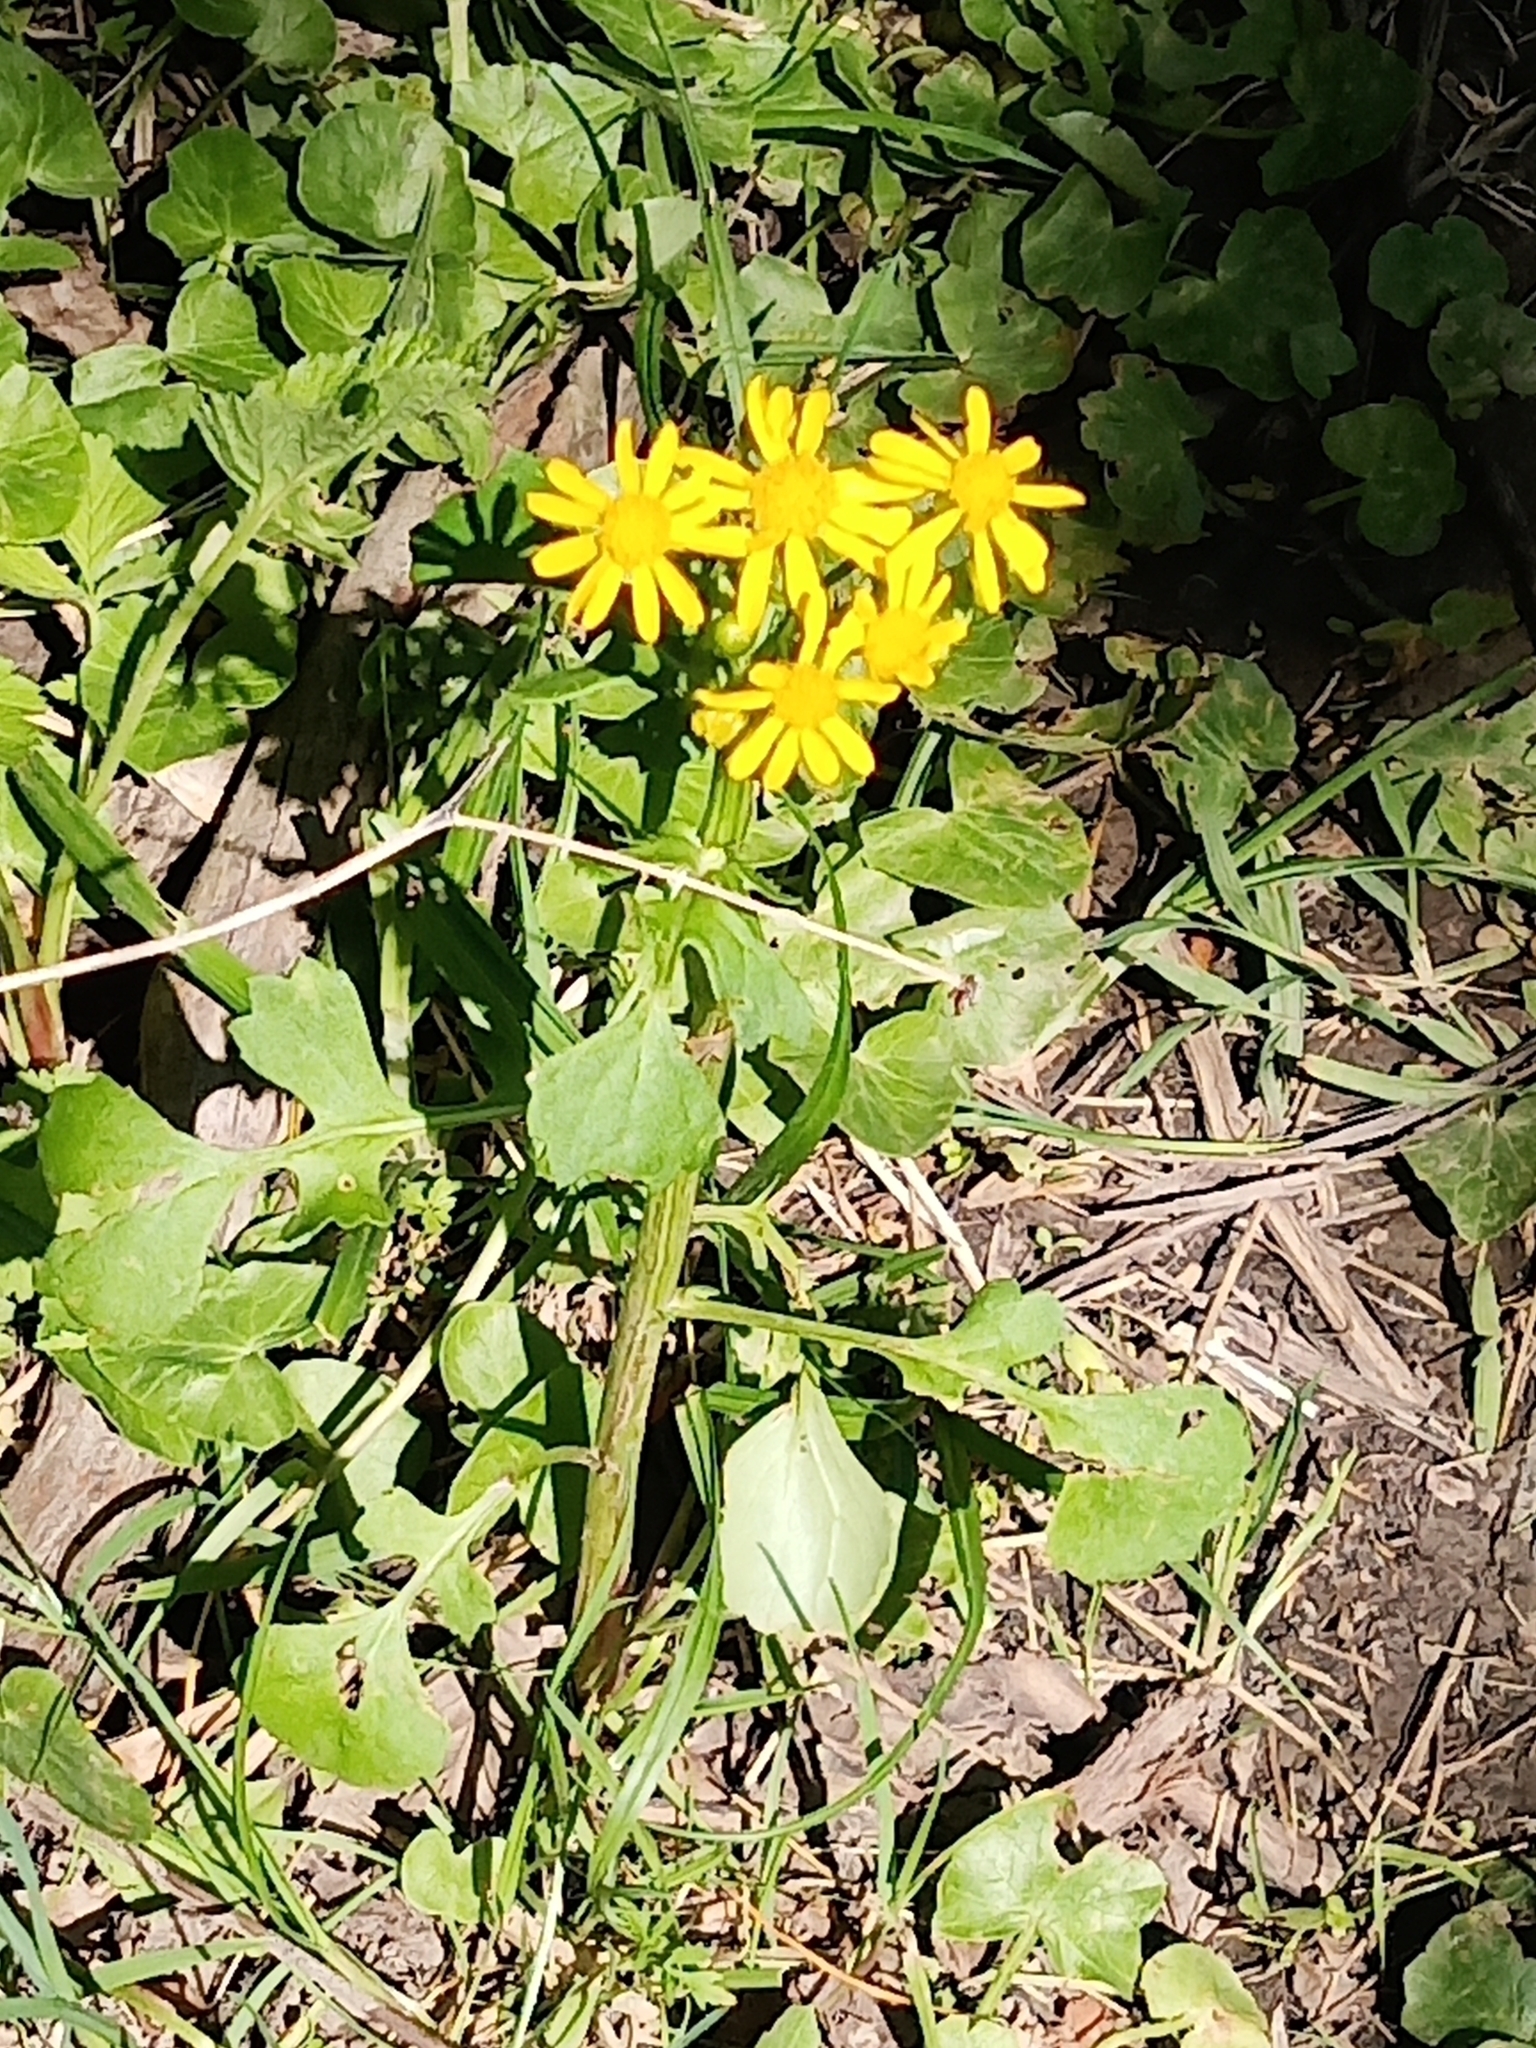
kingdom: Plantae
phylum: Tracheophyta
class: Magnoliopsida
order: Asterales
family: Asteraceae
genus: Packera
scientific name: Packera glabella
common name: Butterweed
